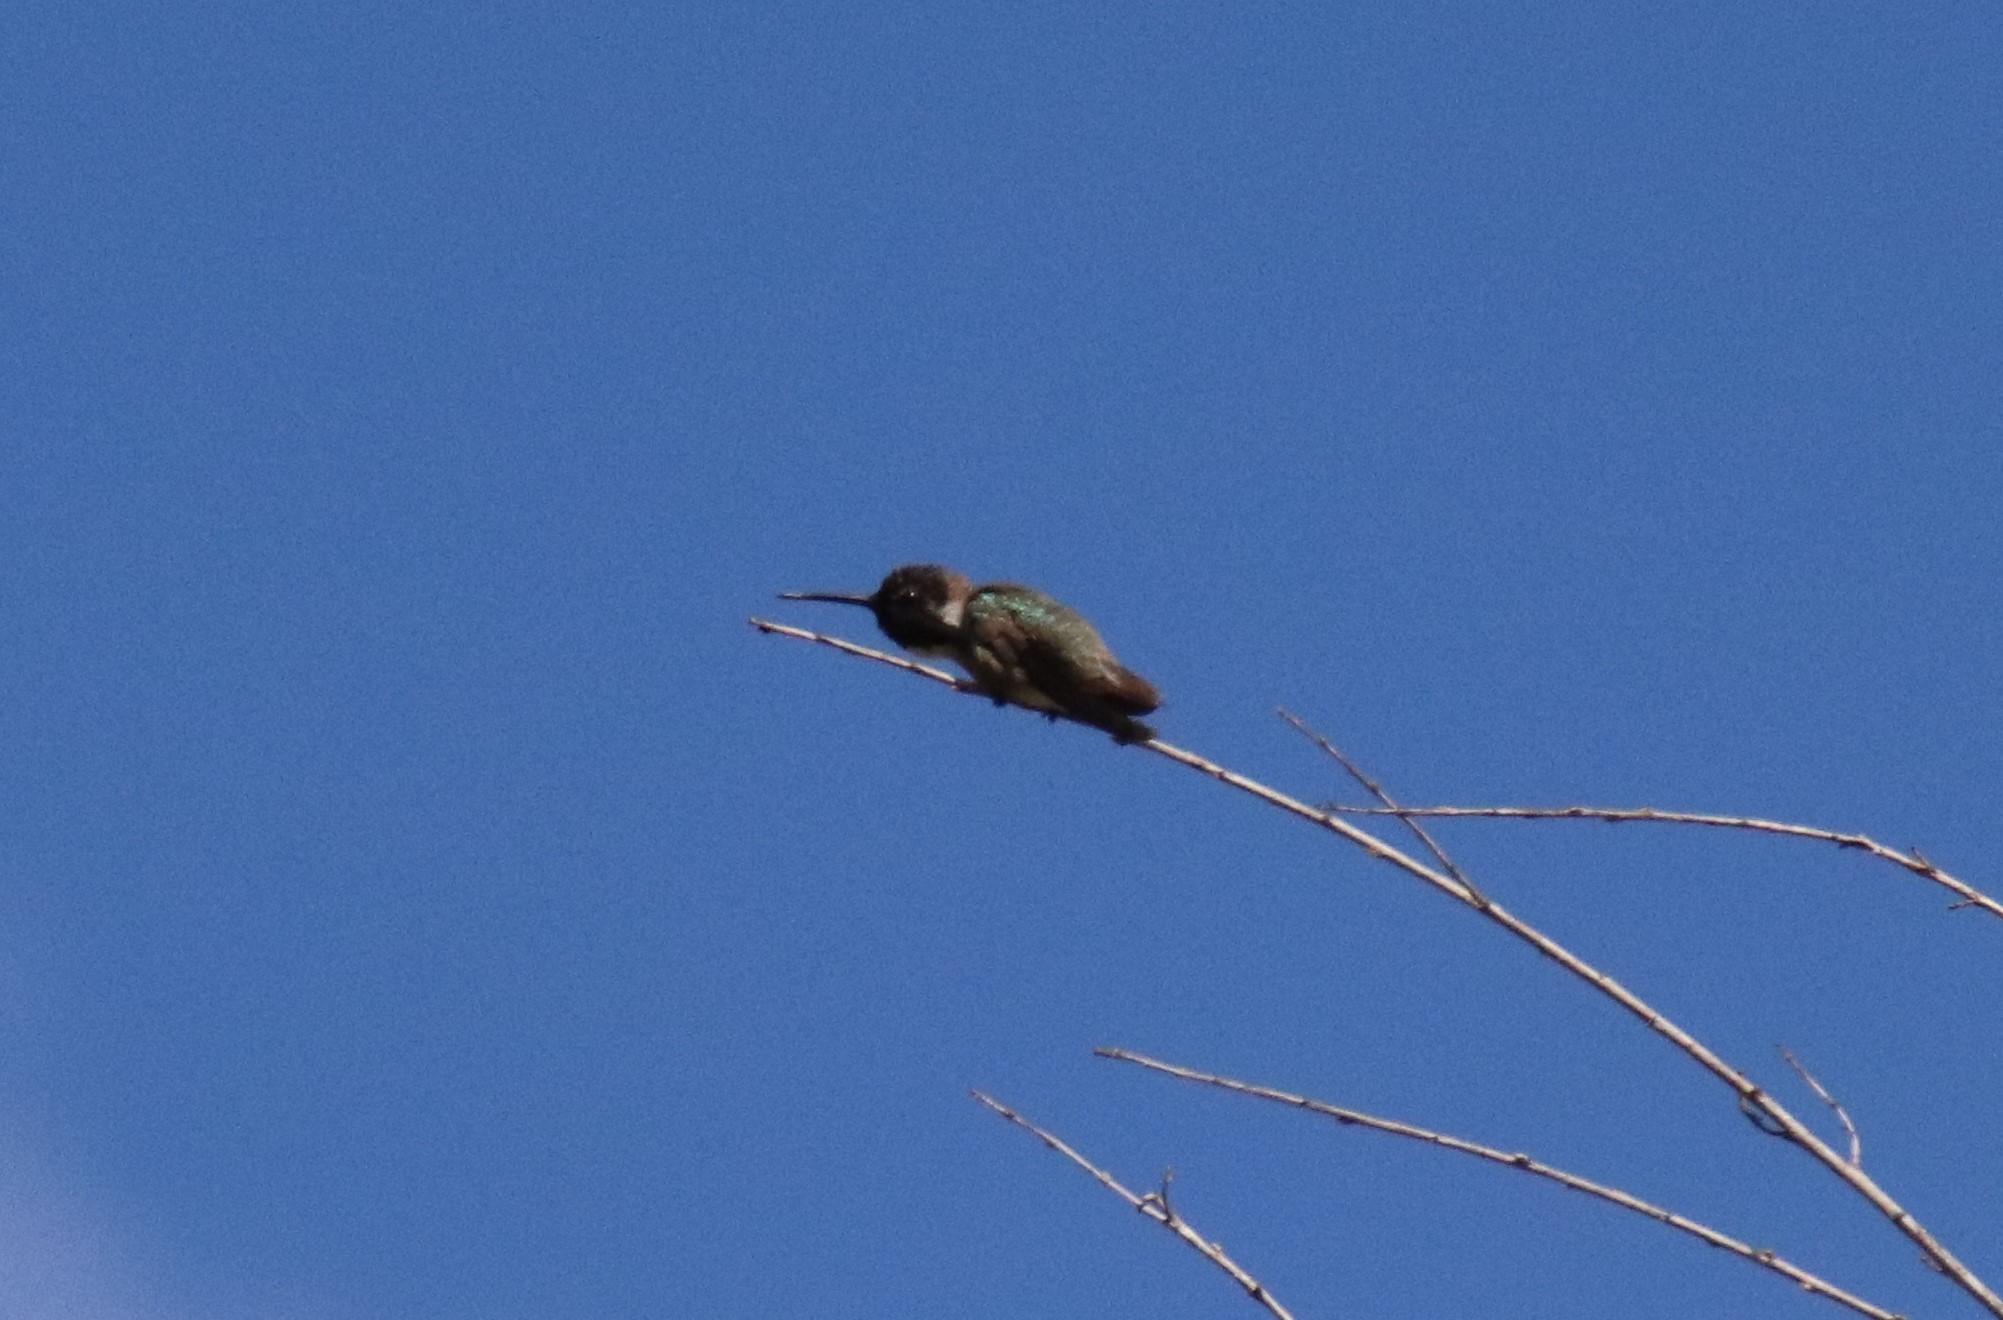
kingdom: Animalia
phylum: Chordata
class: Aves
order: Apodiformes
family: Trochilidae
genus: Calypte
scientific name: Calypte costae
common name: Costa's hummingbird
